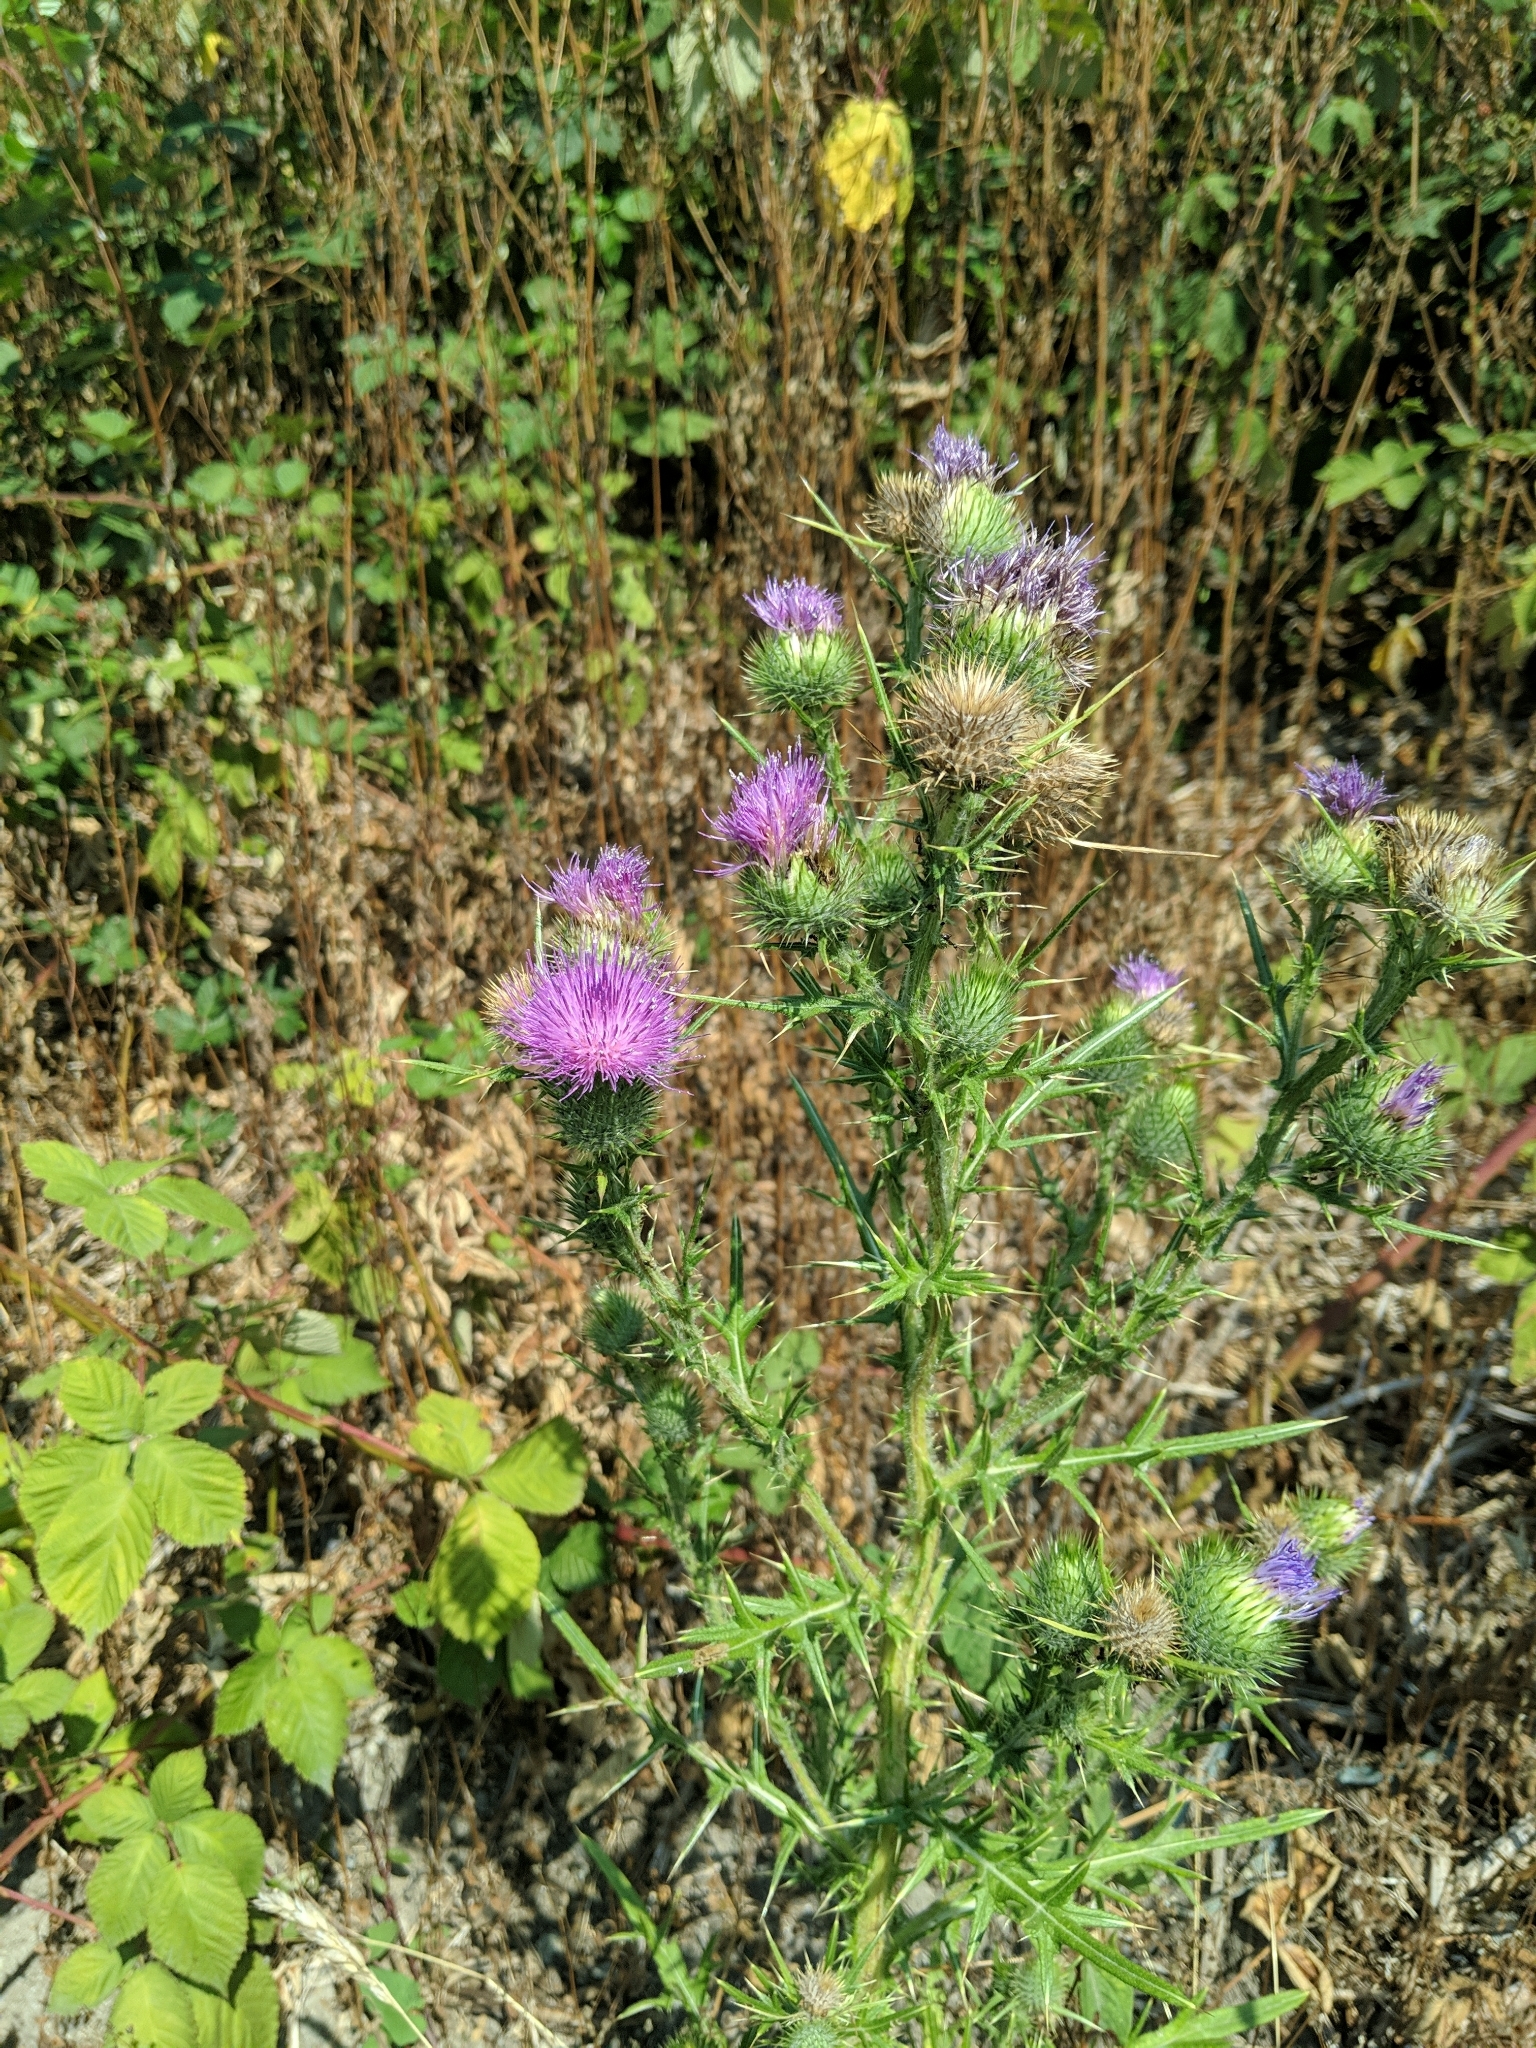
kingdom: Plantae
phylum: Tracheophyta
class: Magnoliopsida
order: Asterales
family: Asteraceae
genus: Cirsium
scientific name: Cirsium vulgare
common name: Bull thistle
